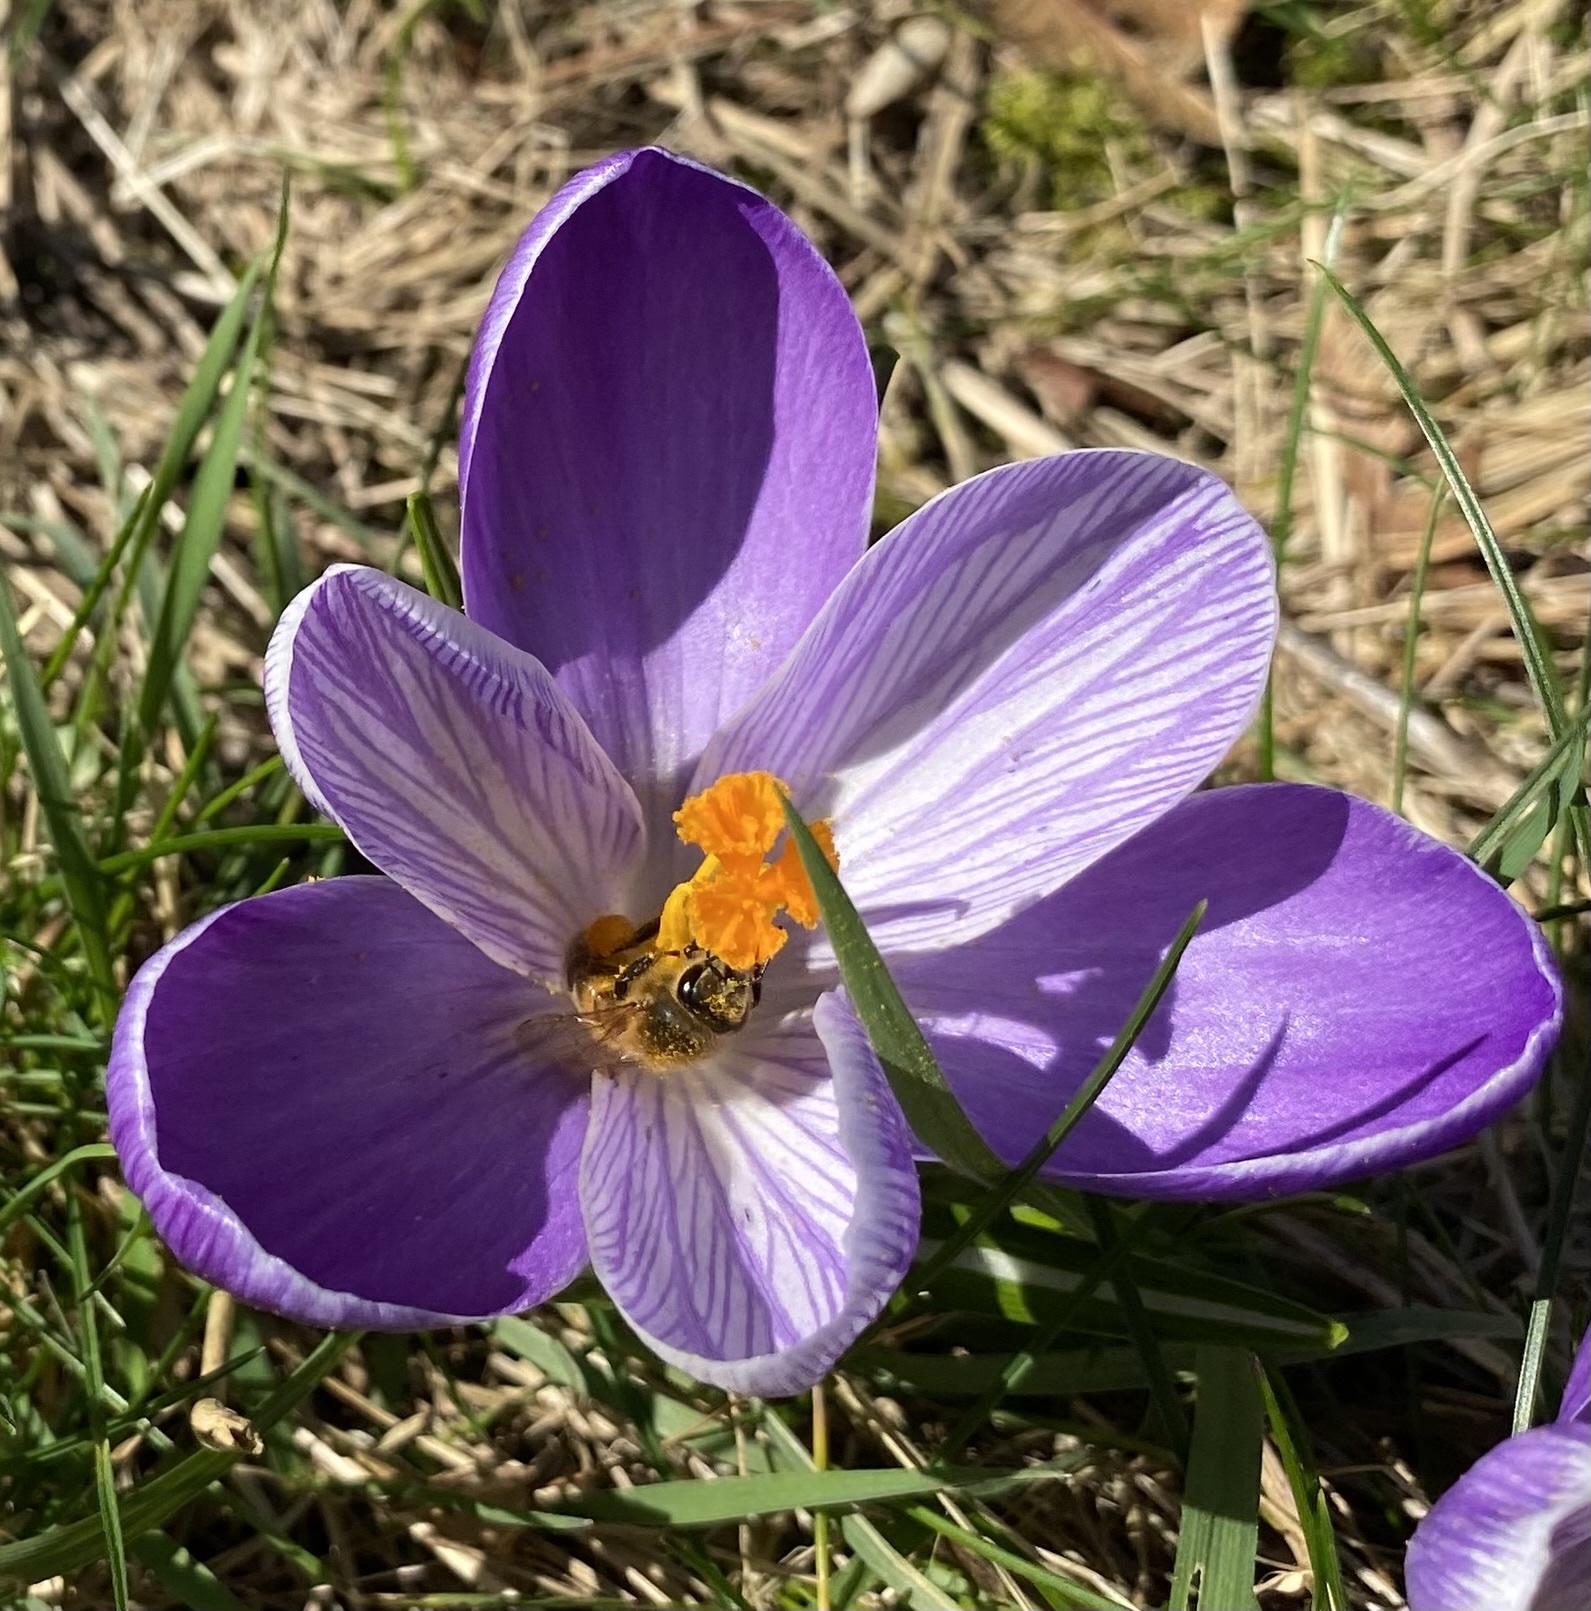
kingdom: Animalia
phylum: Arthropoda
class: Insecta
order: Hymenoptera
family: Apidae
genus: Apis
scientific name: Apis mellifera
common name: Honey bee
